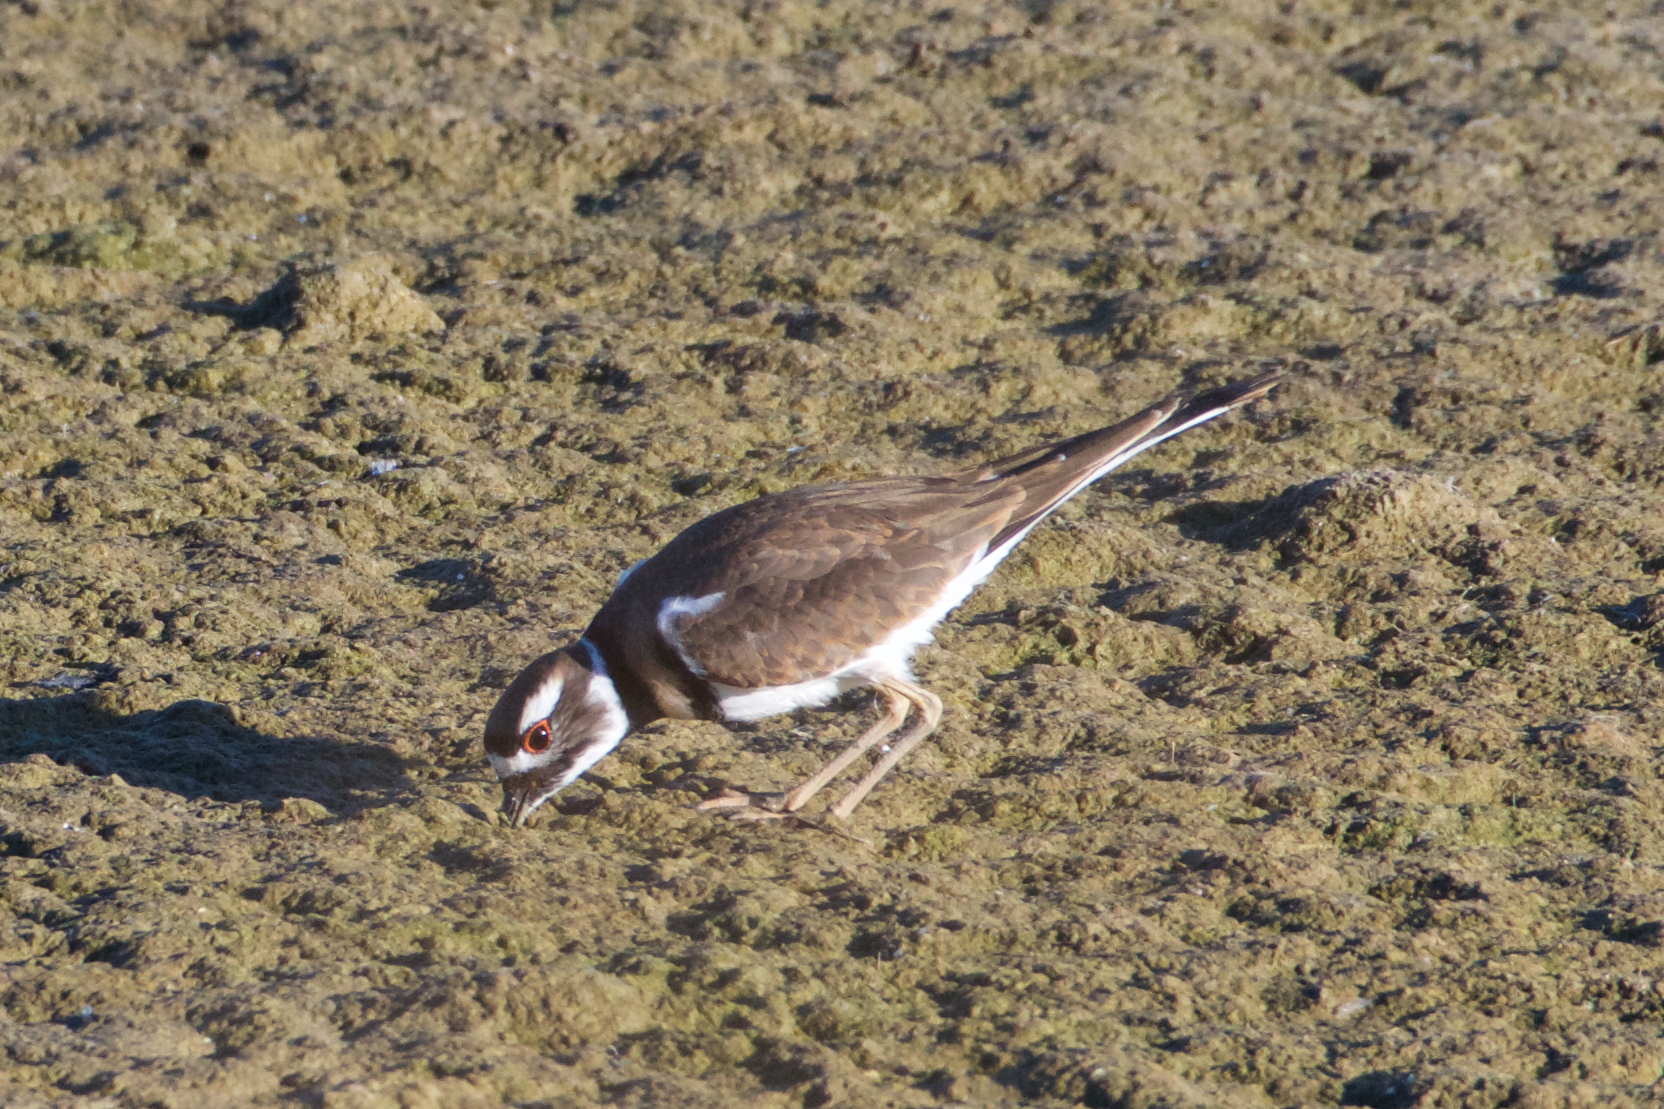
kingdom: Animalia
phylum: Chordata
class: Aves
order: Charadriiformes
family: Charadriidae
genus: Charadrius
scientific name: Charadrius vociferus
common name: Killdeer
